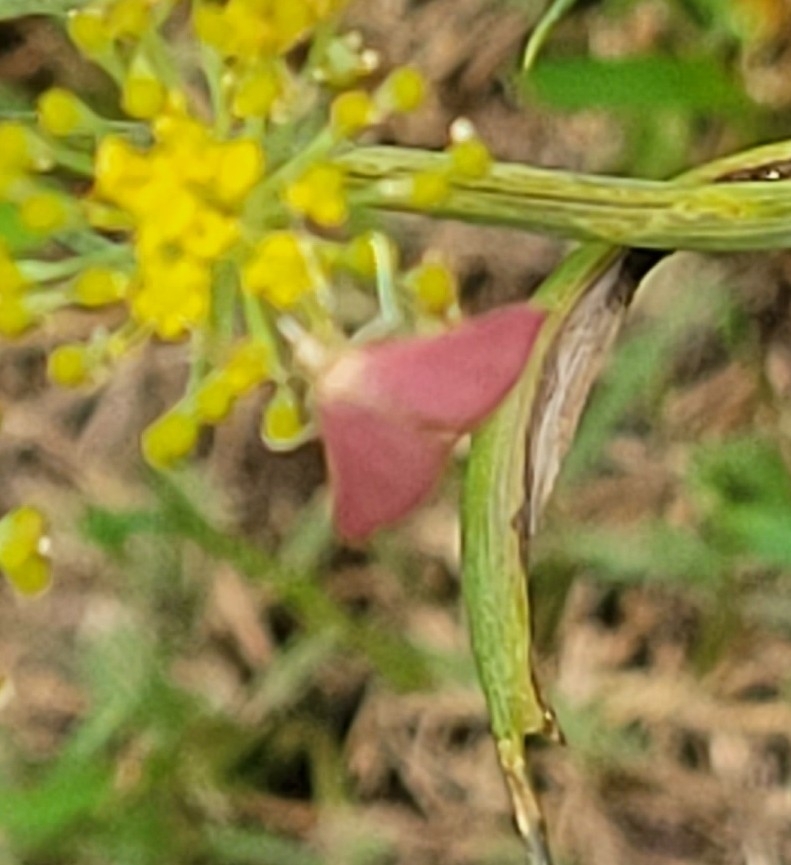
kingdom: Animalia
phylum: Arthropoda
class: Insecta
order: Lepidoptera
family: Crambidae
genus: Pyrausta
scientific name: Pyrausta inornatalis
